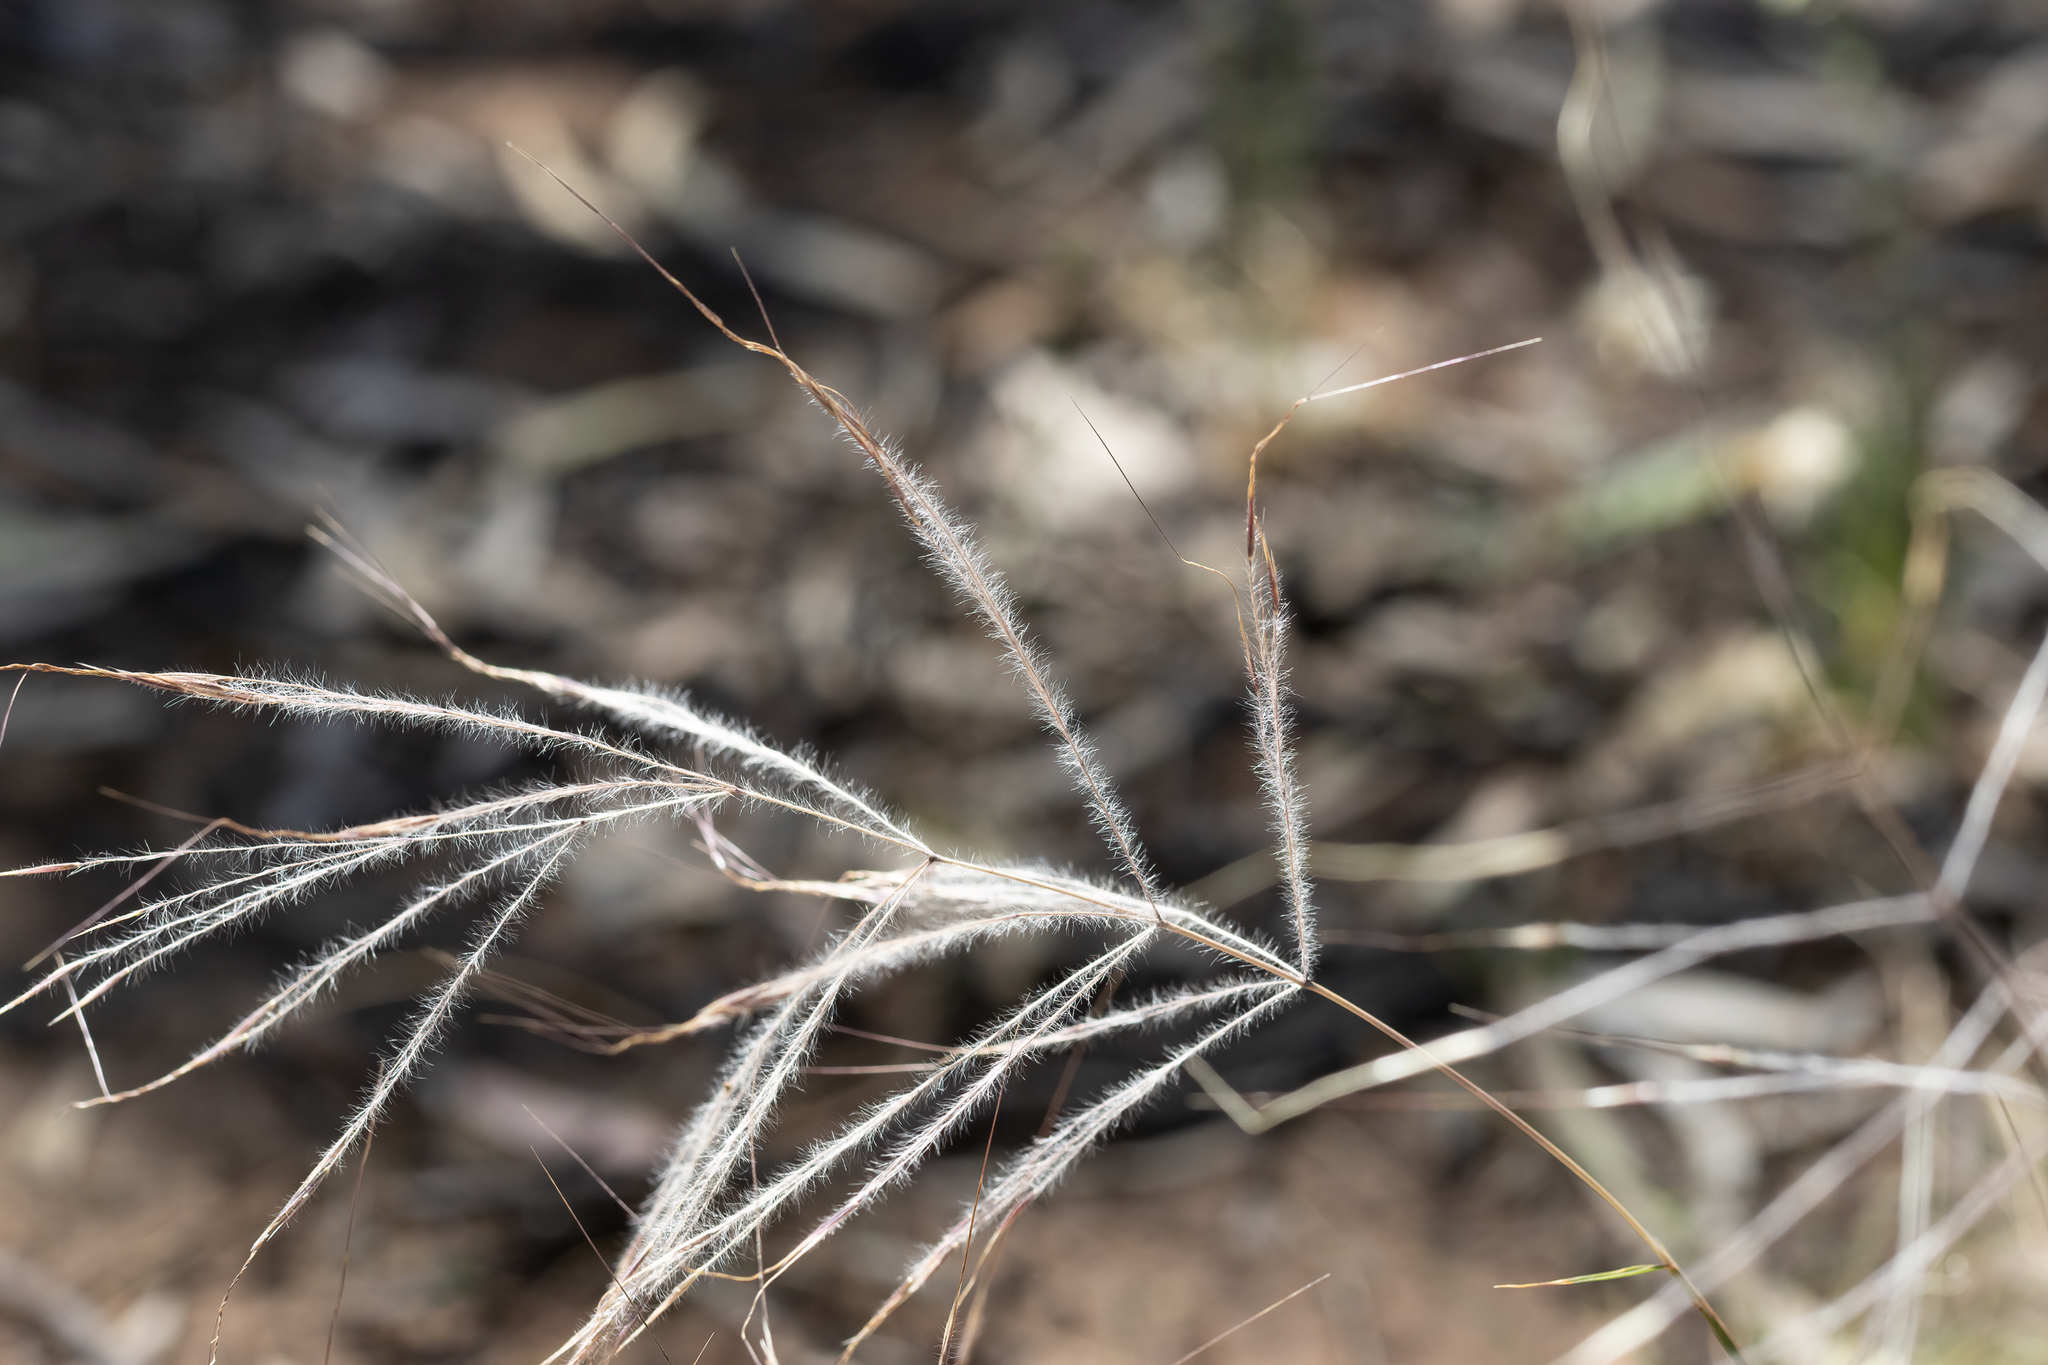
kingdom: Plantae
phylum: Tracheophyta
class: Liliopsida
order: Poales
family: Poaceae
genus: Austrostipa
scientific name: Austrostipa elegantissima
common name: Feather spear grass
